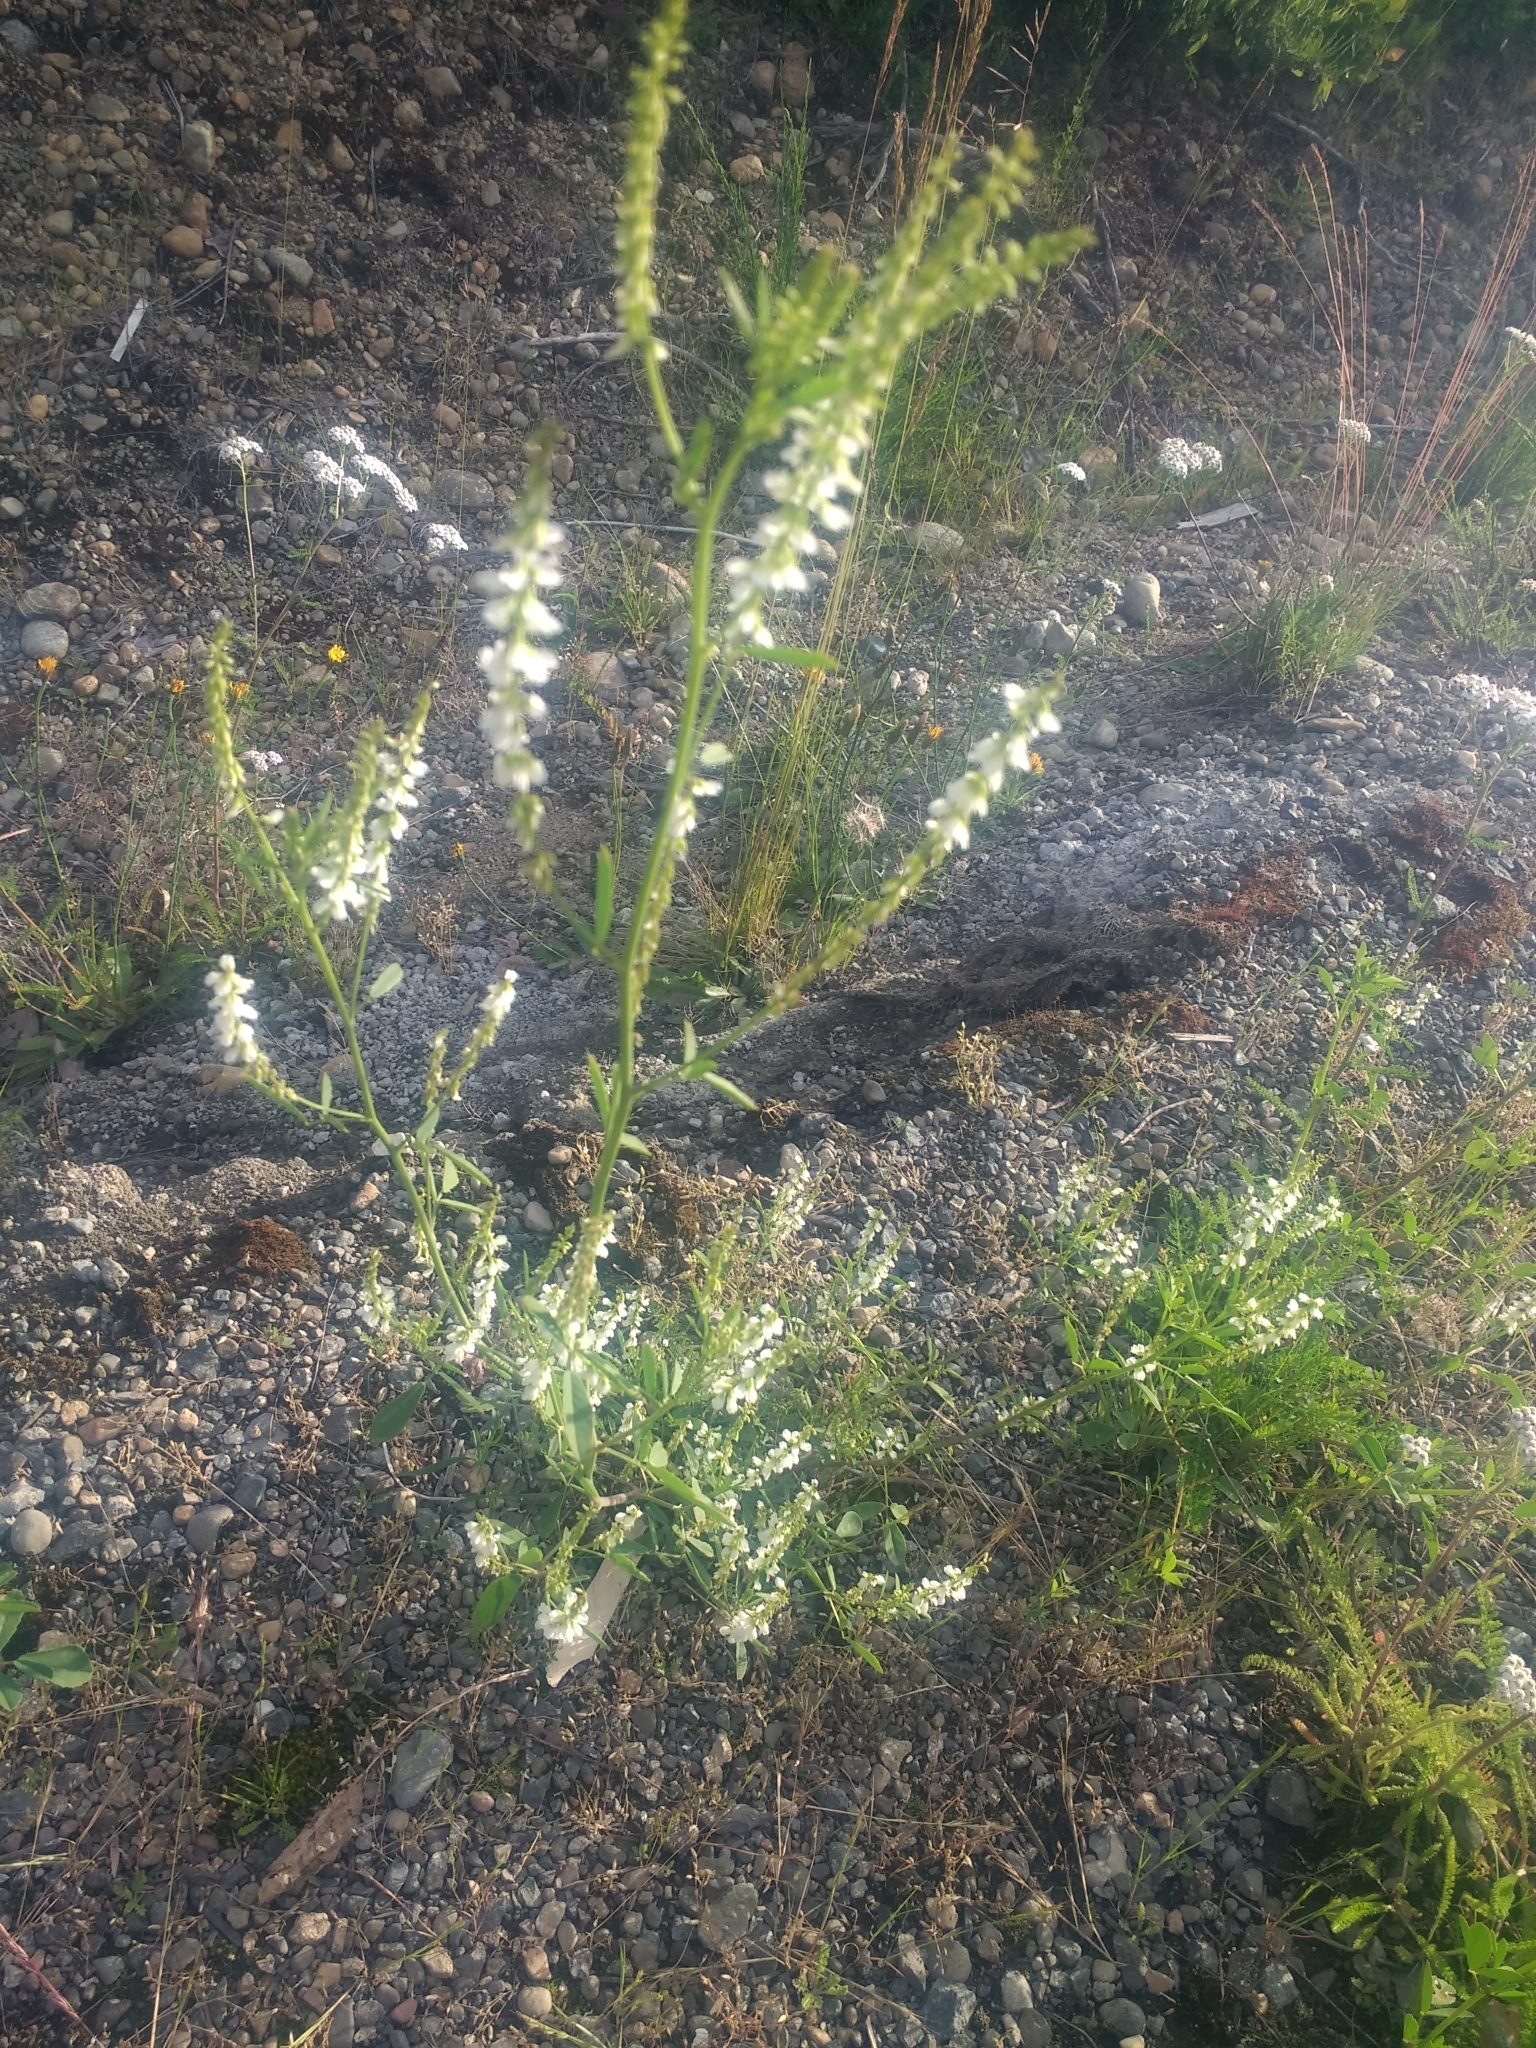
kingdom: Plantae
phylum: Tracheophyta
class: Magnoliopsida
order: Fabales
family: Fabaceae
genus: Melilotus
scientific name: Melilotus albus
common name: White melilot
